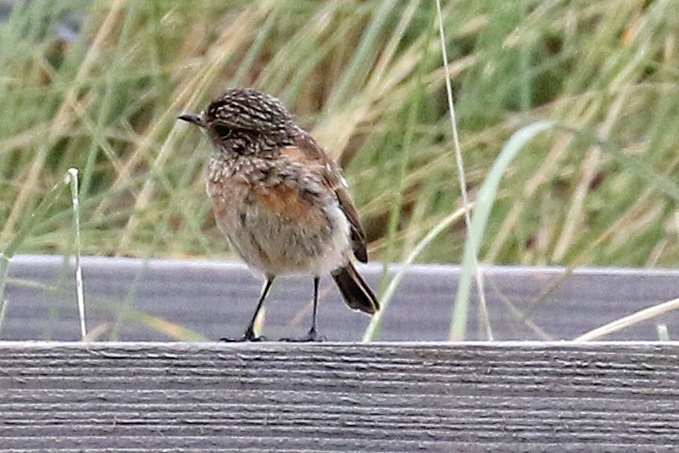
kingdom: Animalia
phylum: Chordata
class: Aves
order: Passeriformes
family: Muscicapidae
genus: Saxicola
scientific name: Saxicola rubicola
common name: European stonechat
